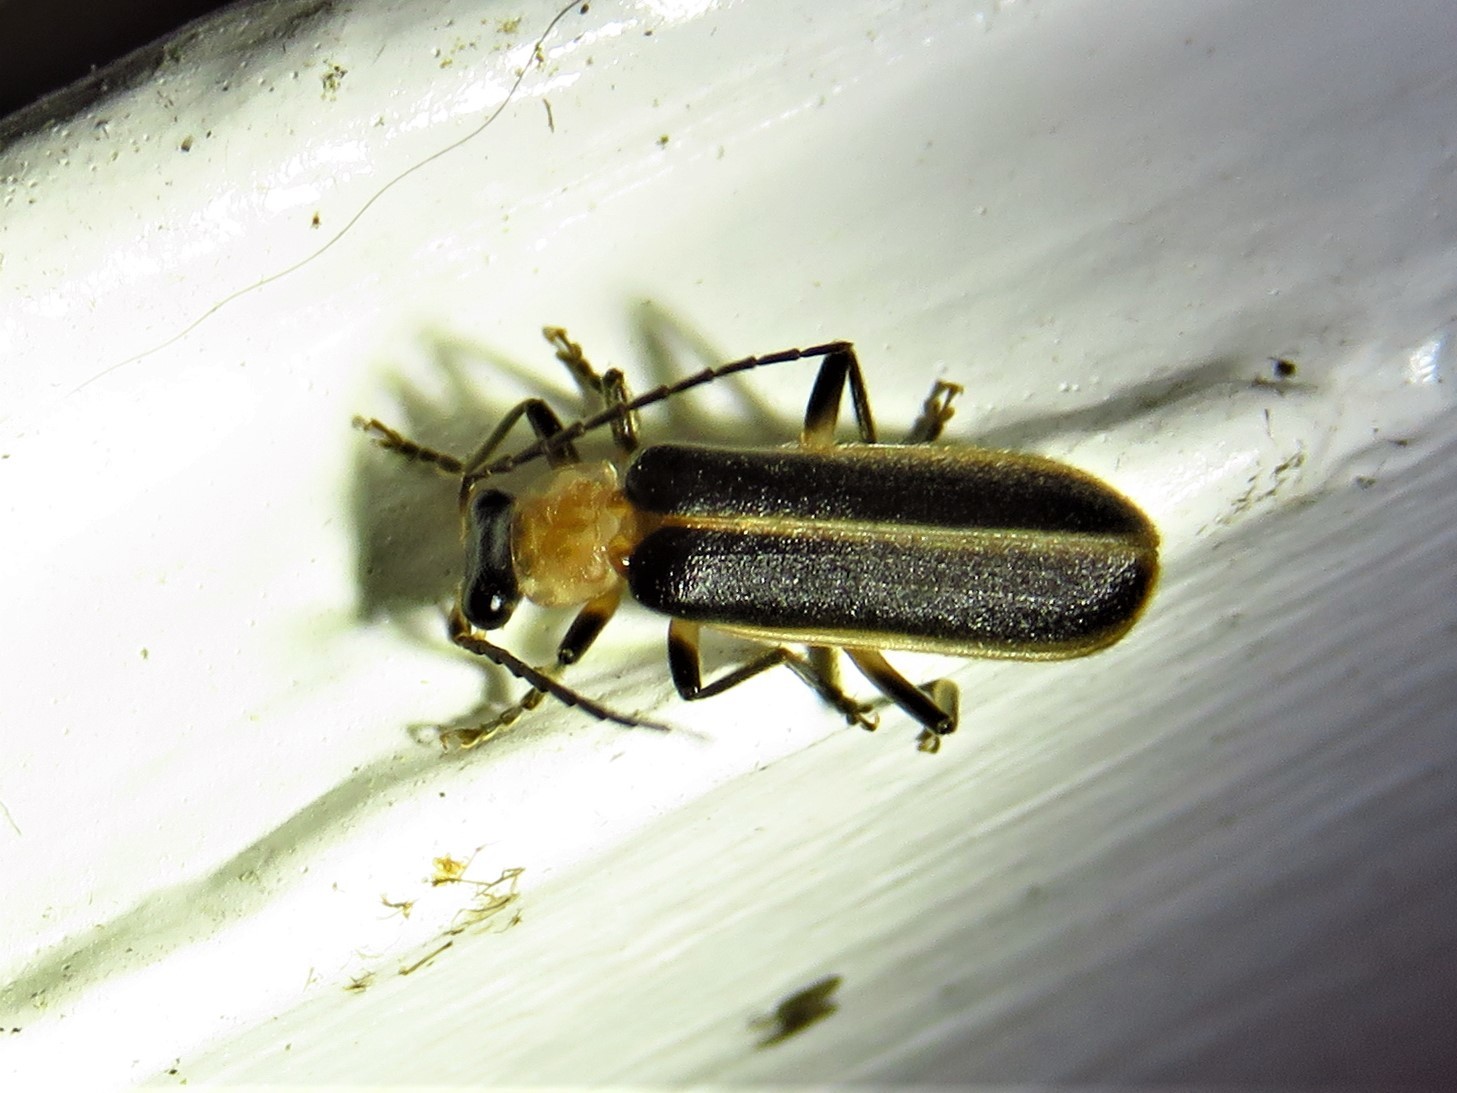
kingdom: Animalia
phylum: Arthropoda
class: Insecta
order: Coleoptera
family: Cantharidae
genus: Podabrus
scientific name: Podabrus flavicollis
